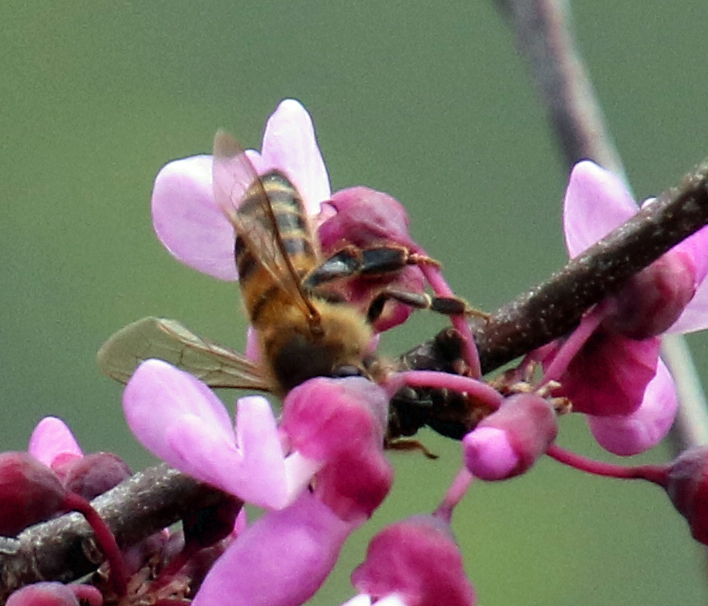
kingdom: Animalia
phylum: Arthropoda
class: Insecta
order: Hymenoptera
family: Apidae
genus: Apis
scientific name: Apis mellifera
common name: Honey bee
